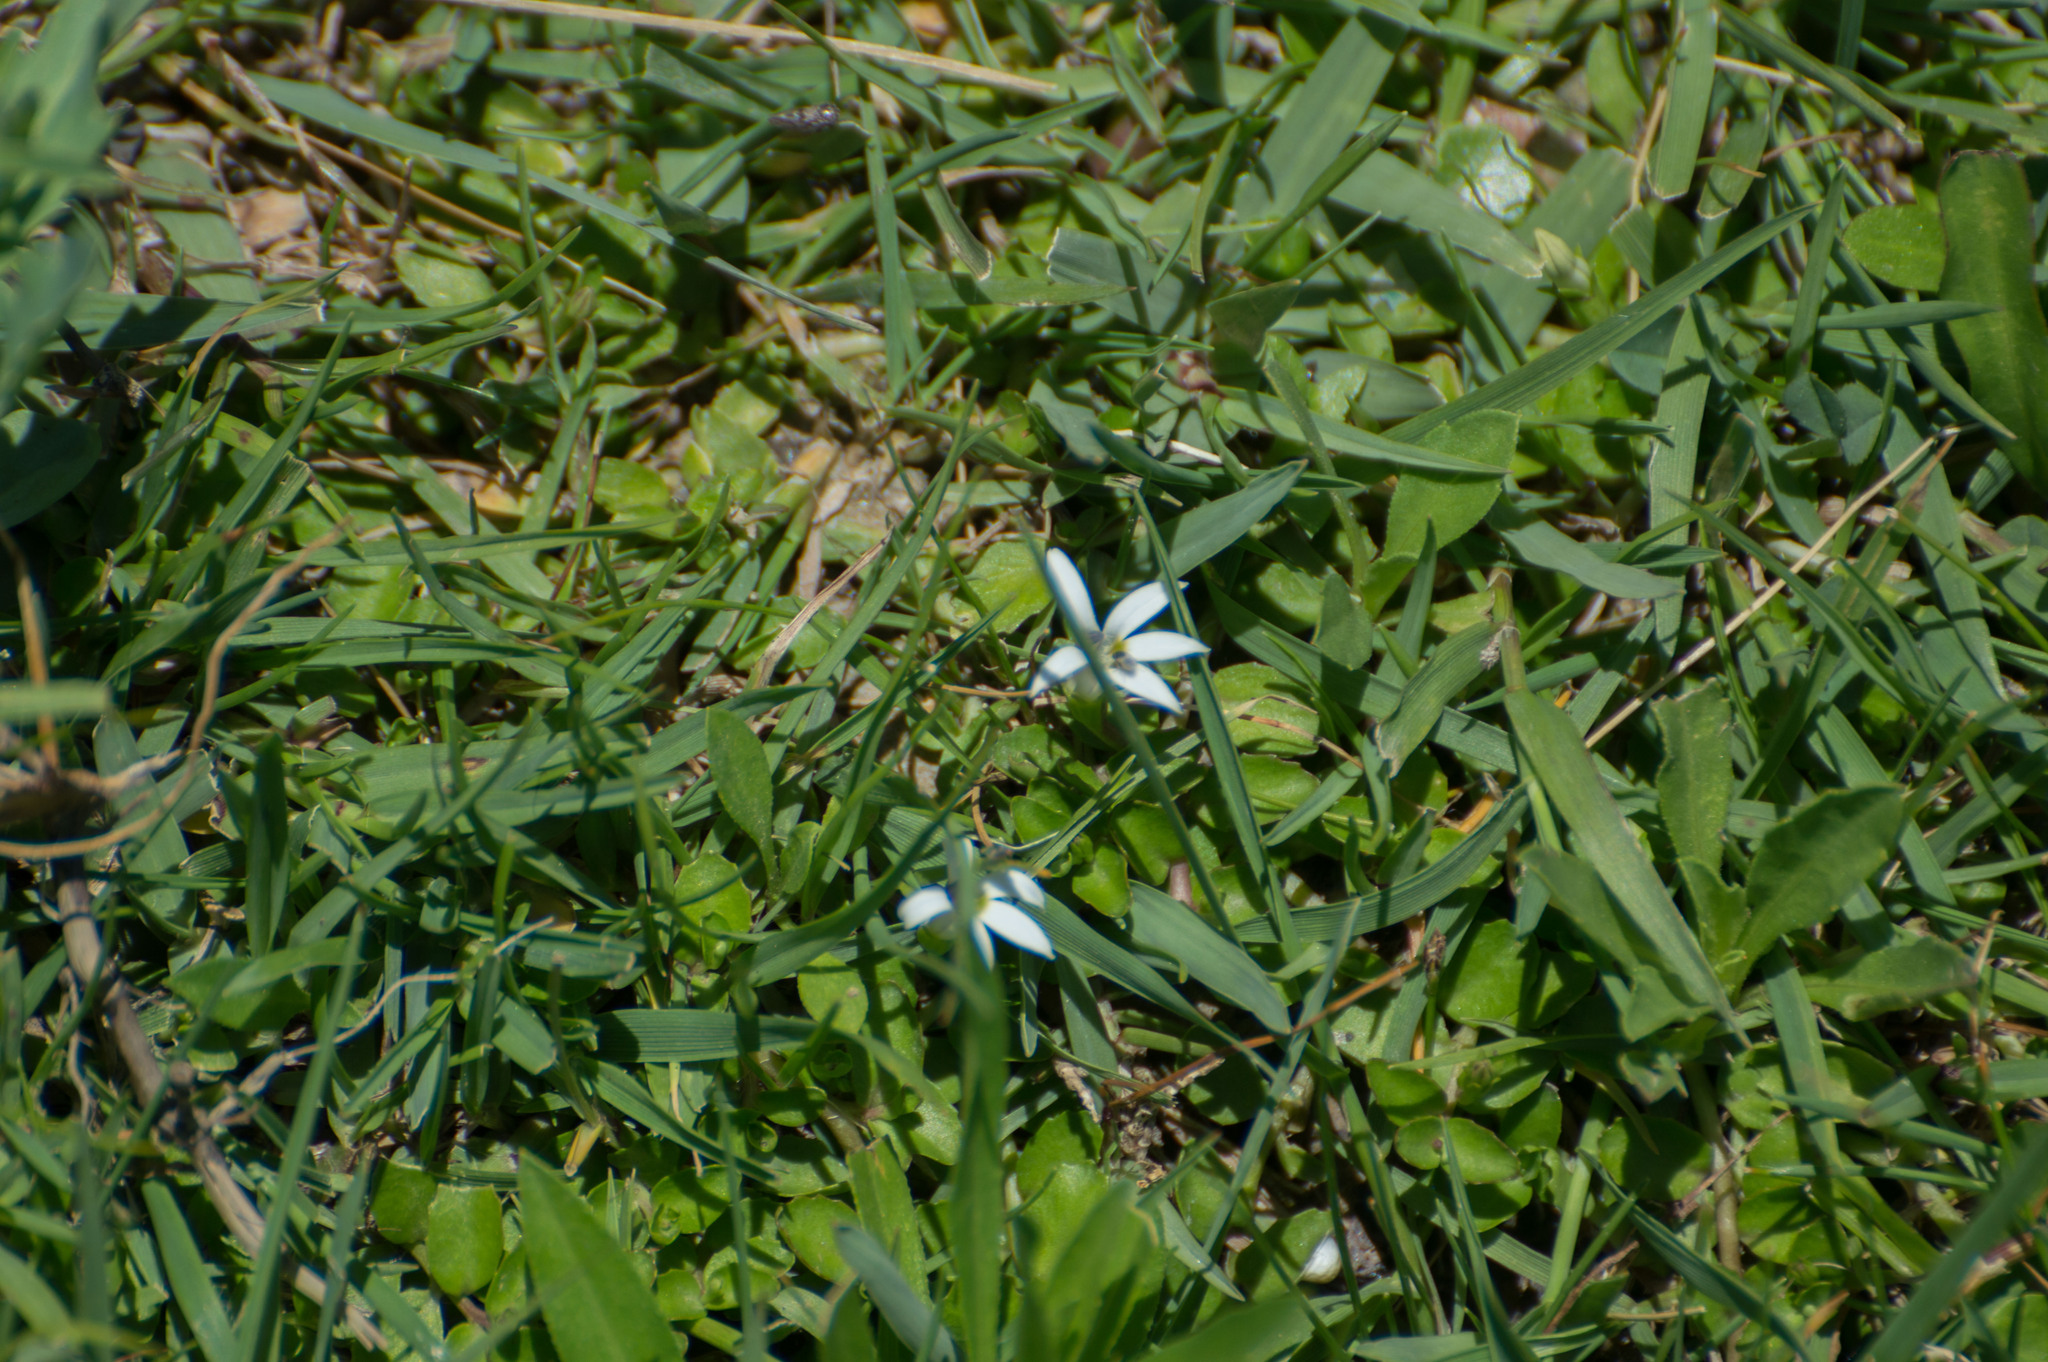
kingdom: Plantae
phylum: Tracheophyta
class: Magnoliopsida
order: Asterales
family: Campanulaceae
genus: Lobelia
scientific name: Lobelia hederacea
